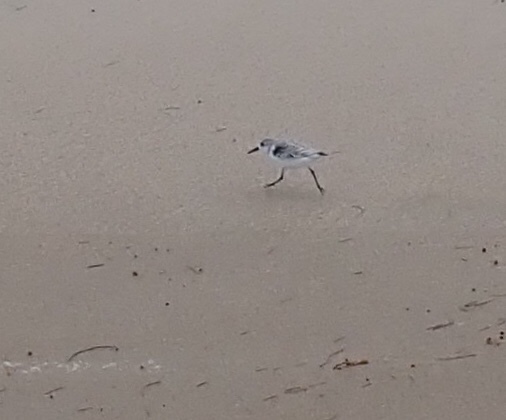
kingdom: Animalia
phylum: Chordata
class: Aves
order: Charadriiformes
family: Scolopacidae
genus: Calidris
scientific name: Calidris alba
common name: Sanderling
